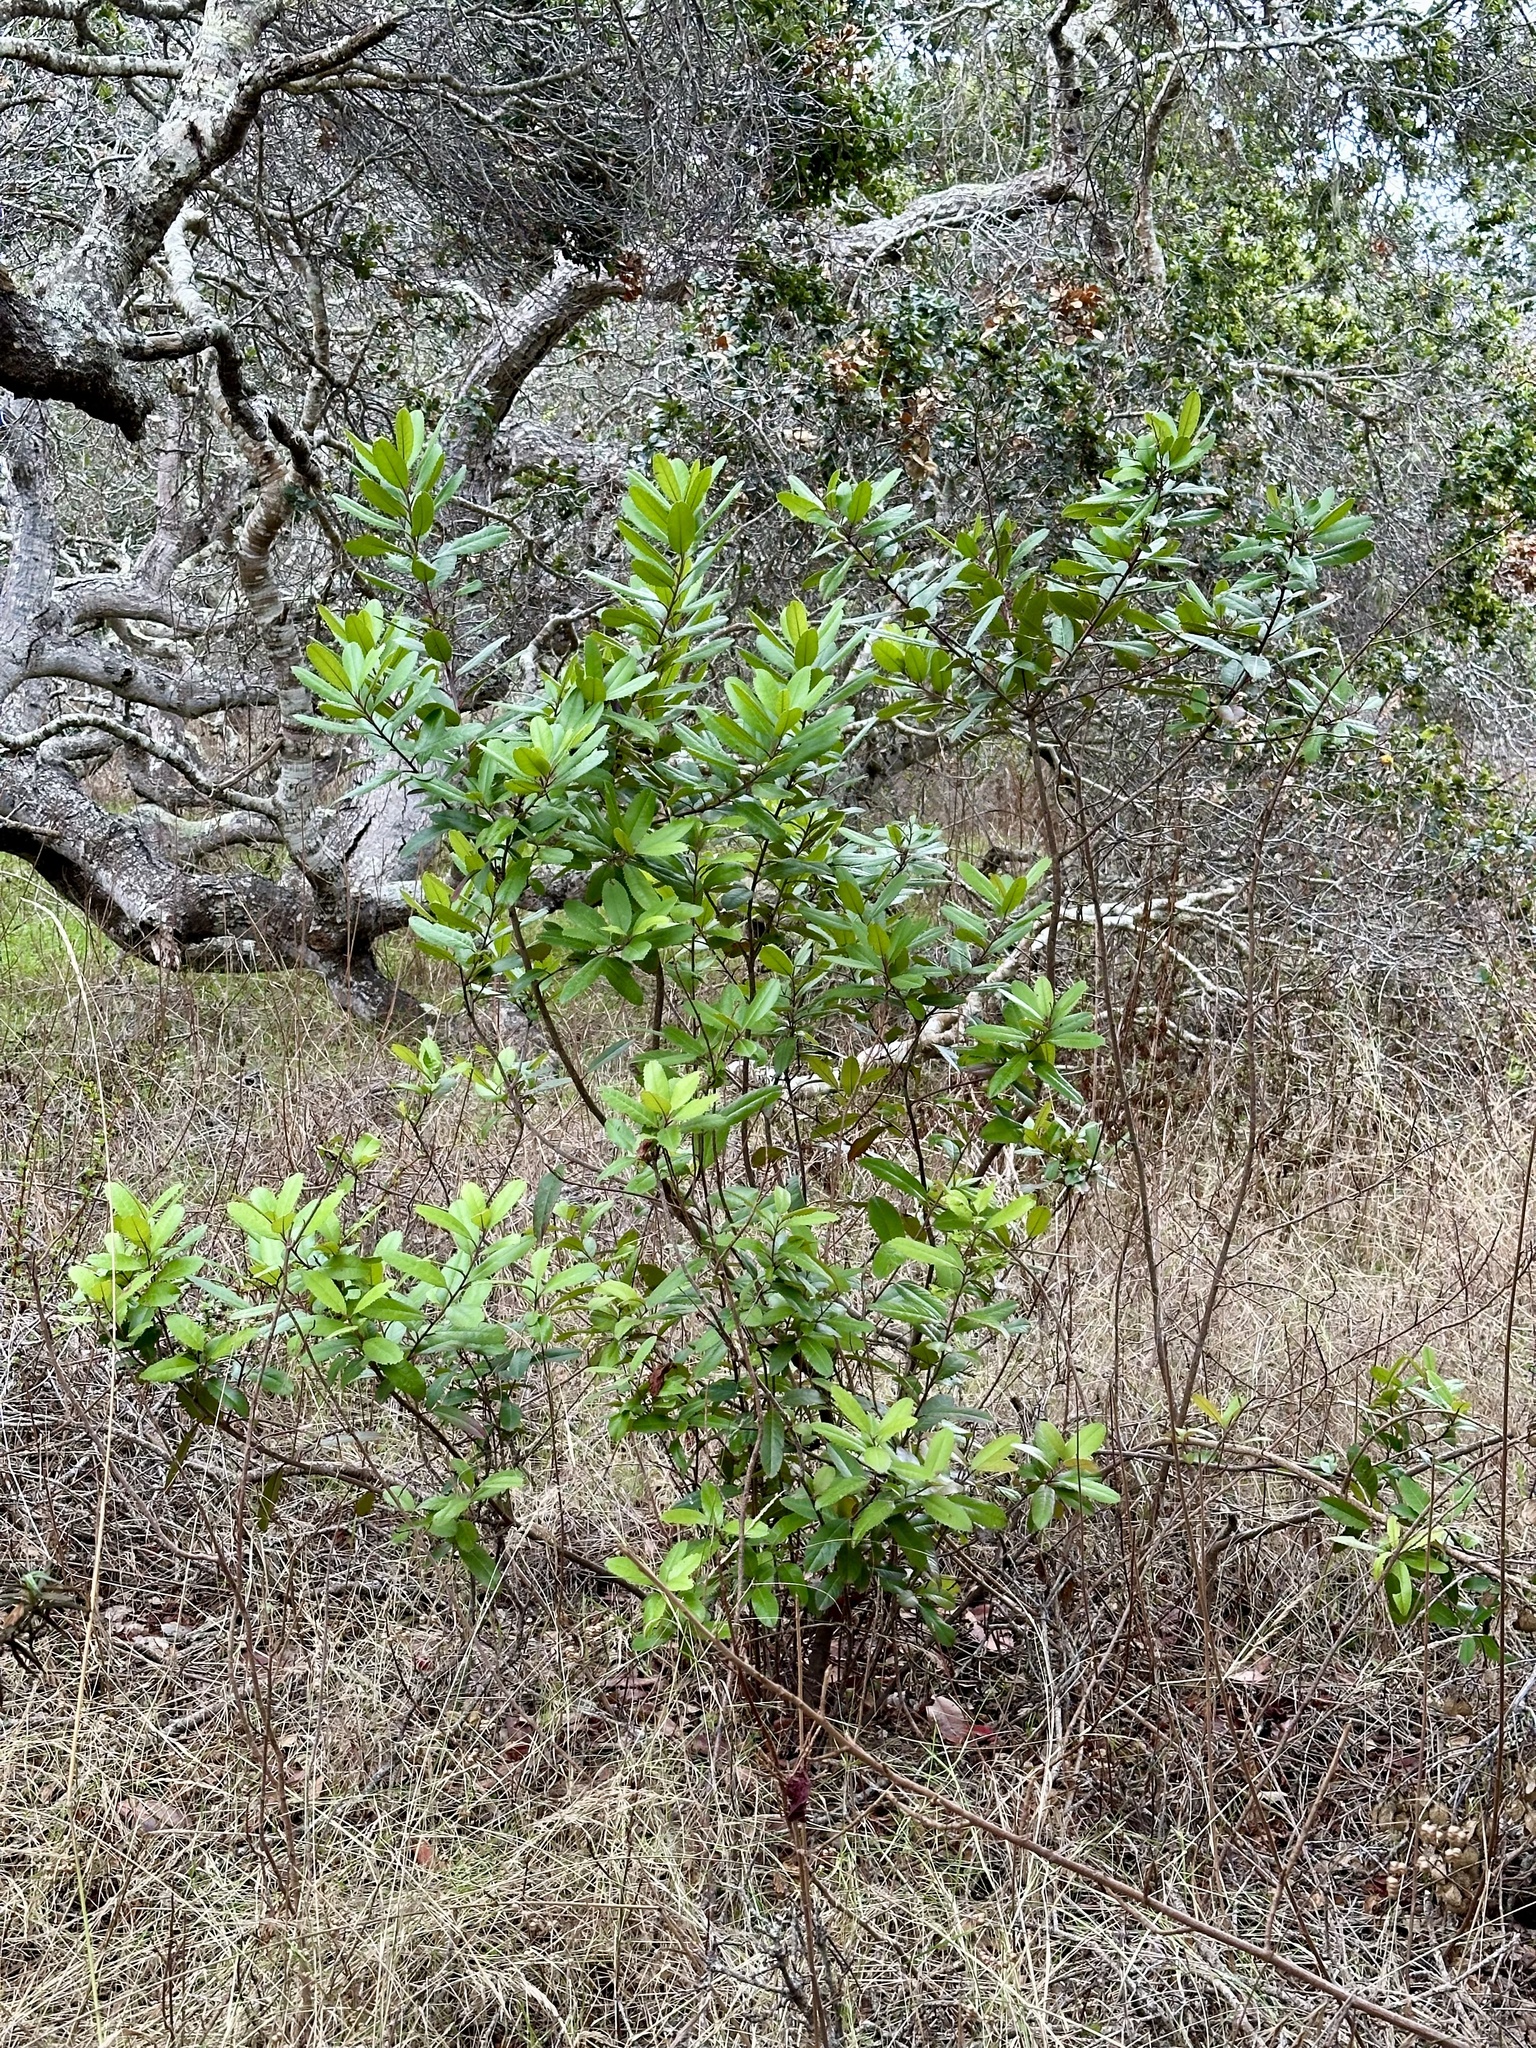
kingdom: Plantae
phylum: Tracheophyta
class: Magnoliopsida
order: Rosales
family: Rosaceae
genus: Heteromeles
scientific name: Heteromeles arbutifolia
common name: California-holly
